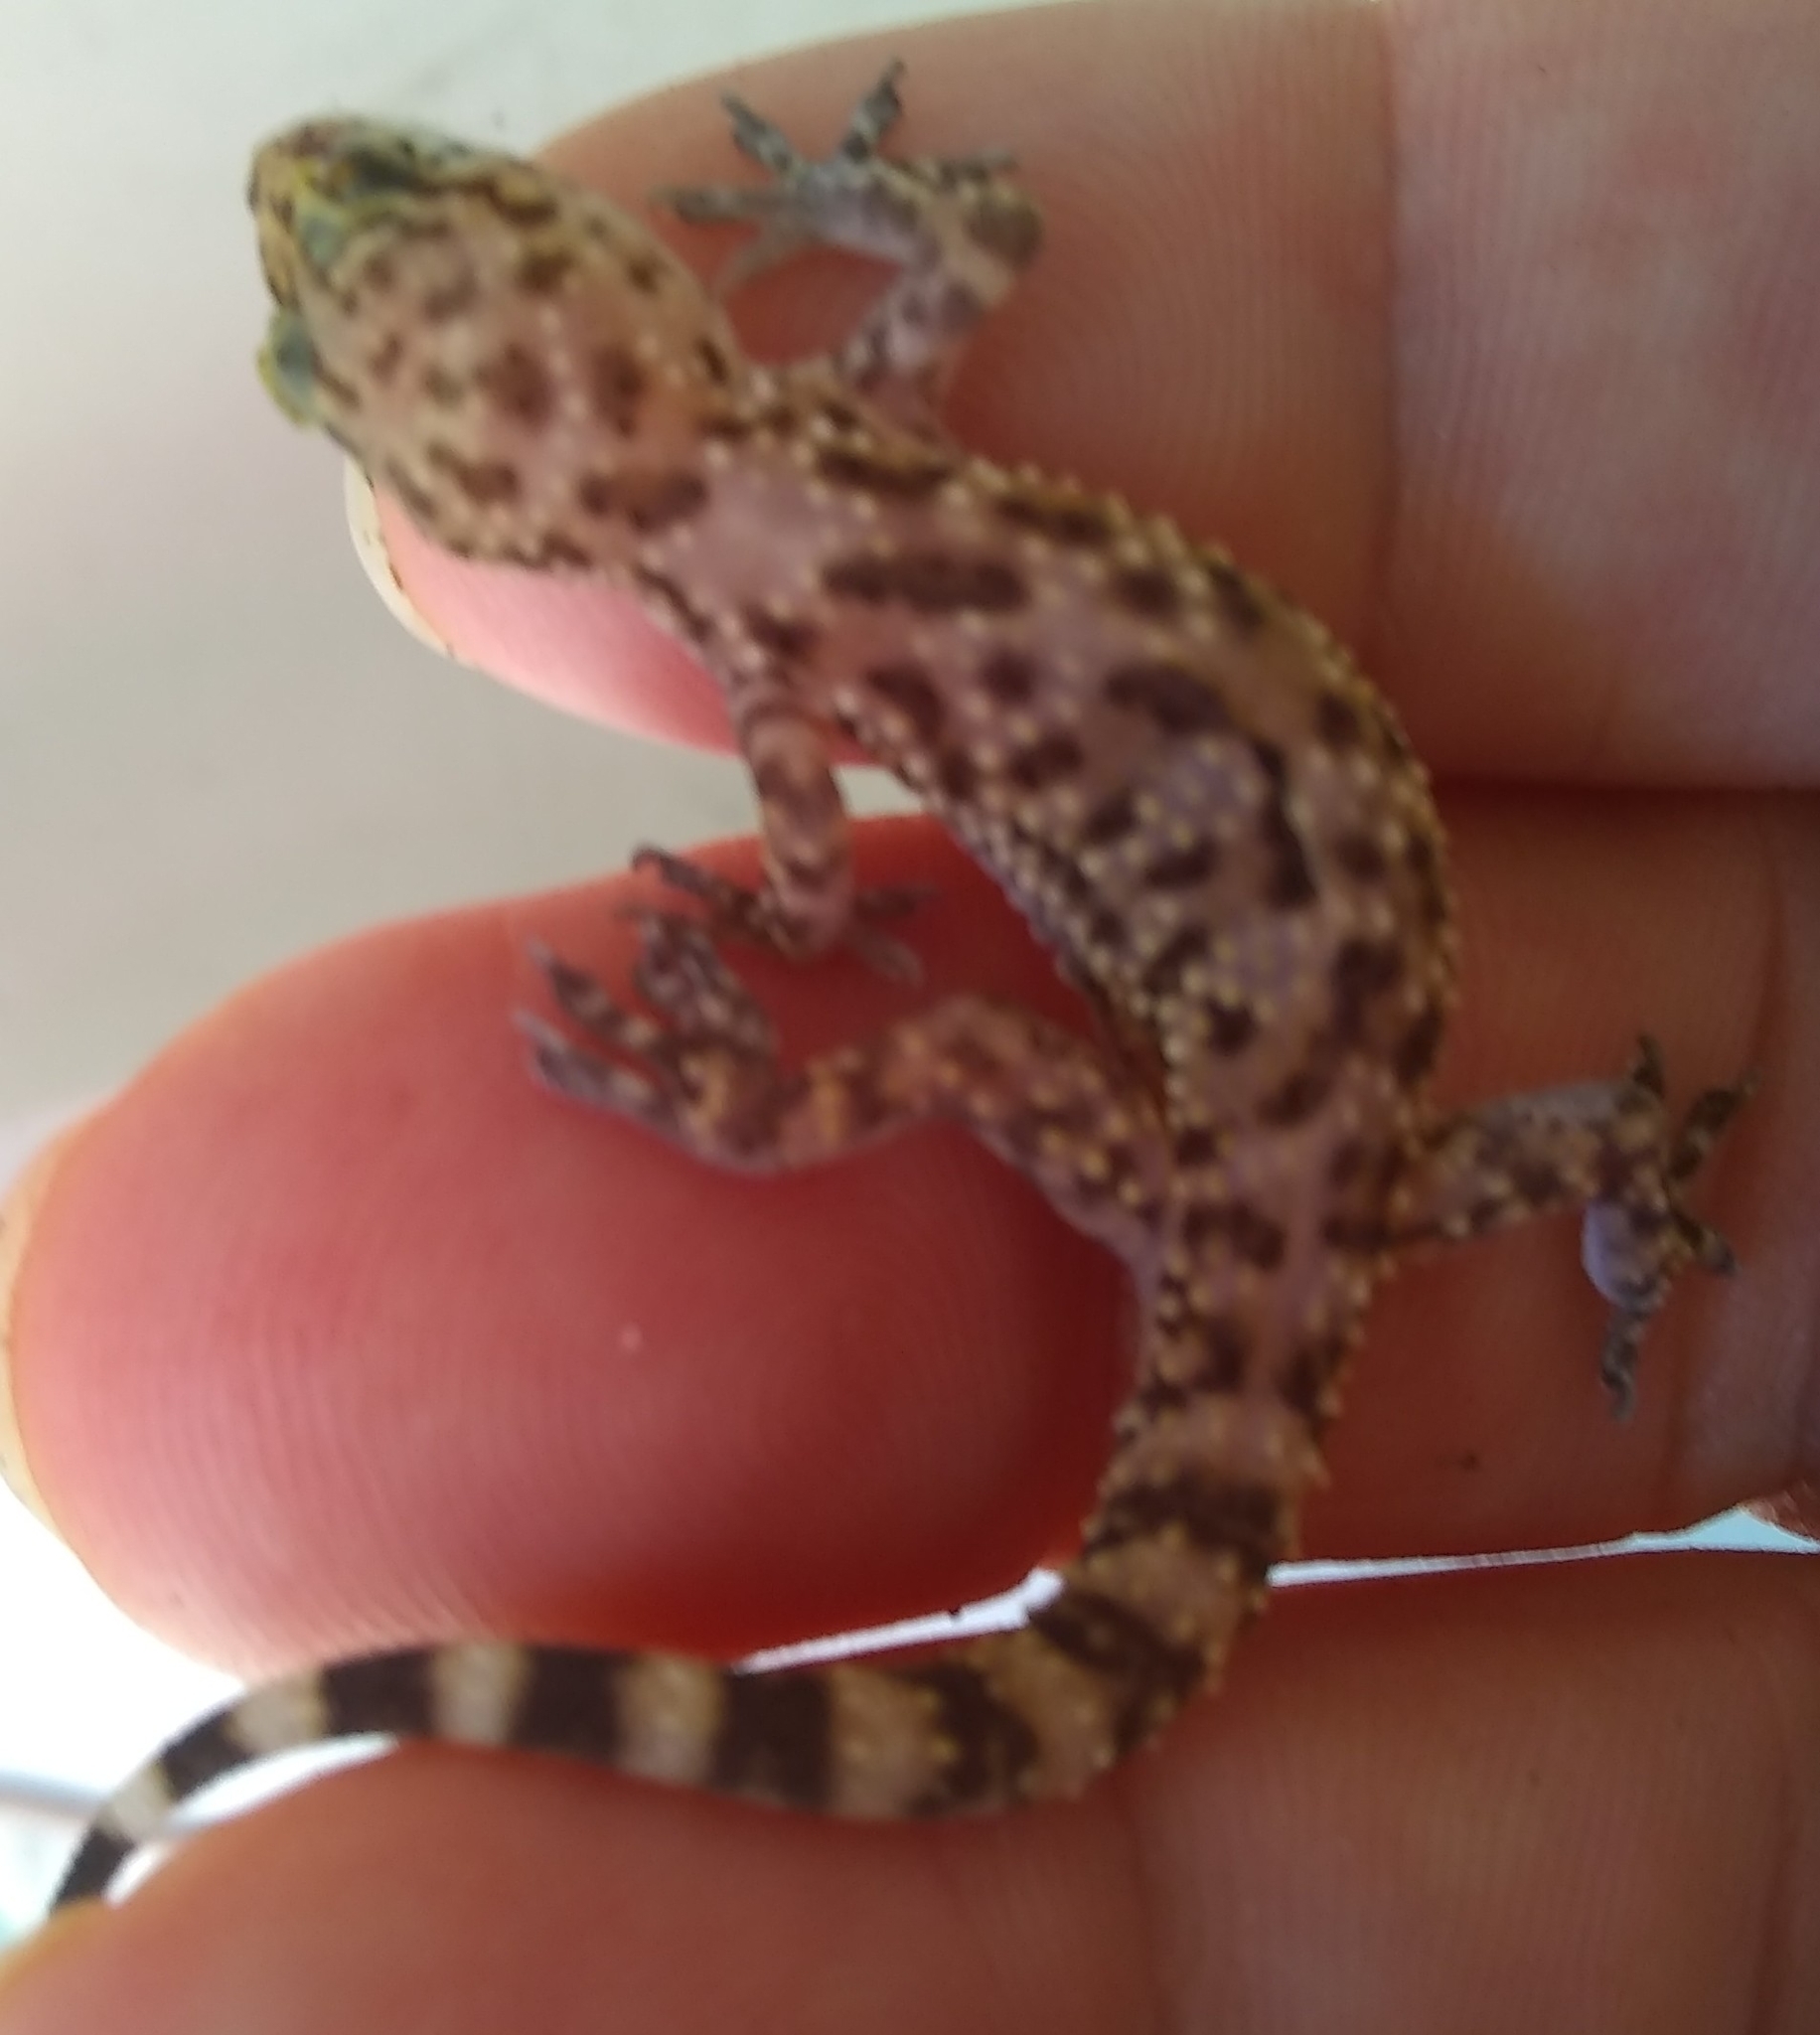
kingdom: Animalia
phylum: Chordata
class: Squamata
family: Gekkonidae
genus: Hemidactylus
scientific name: Hemidactylus turcicus
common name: Turkish gecko
